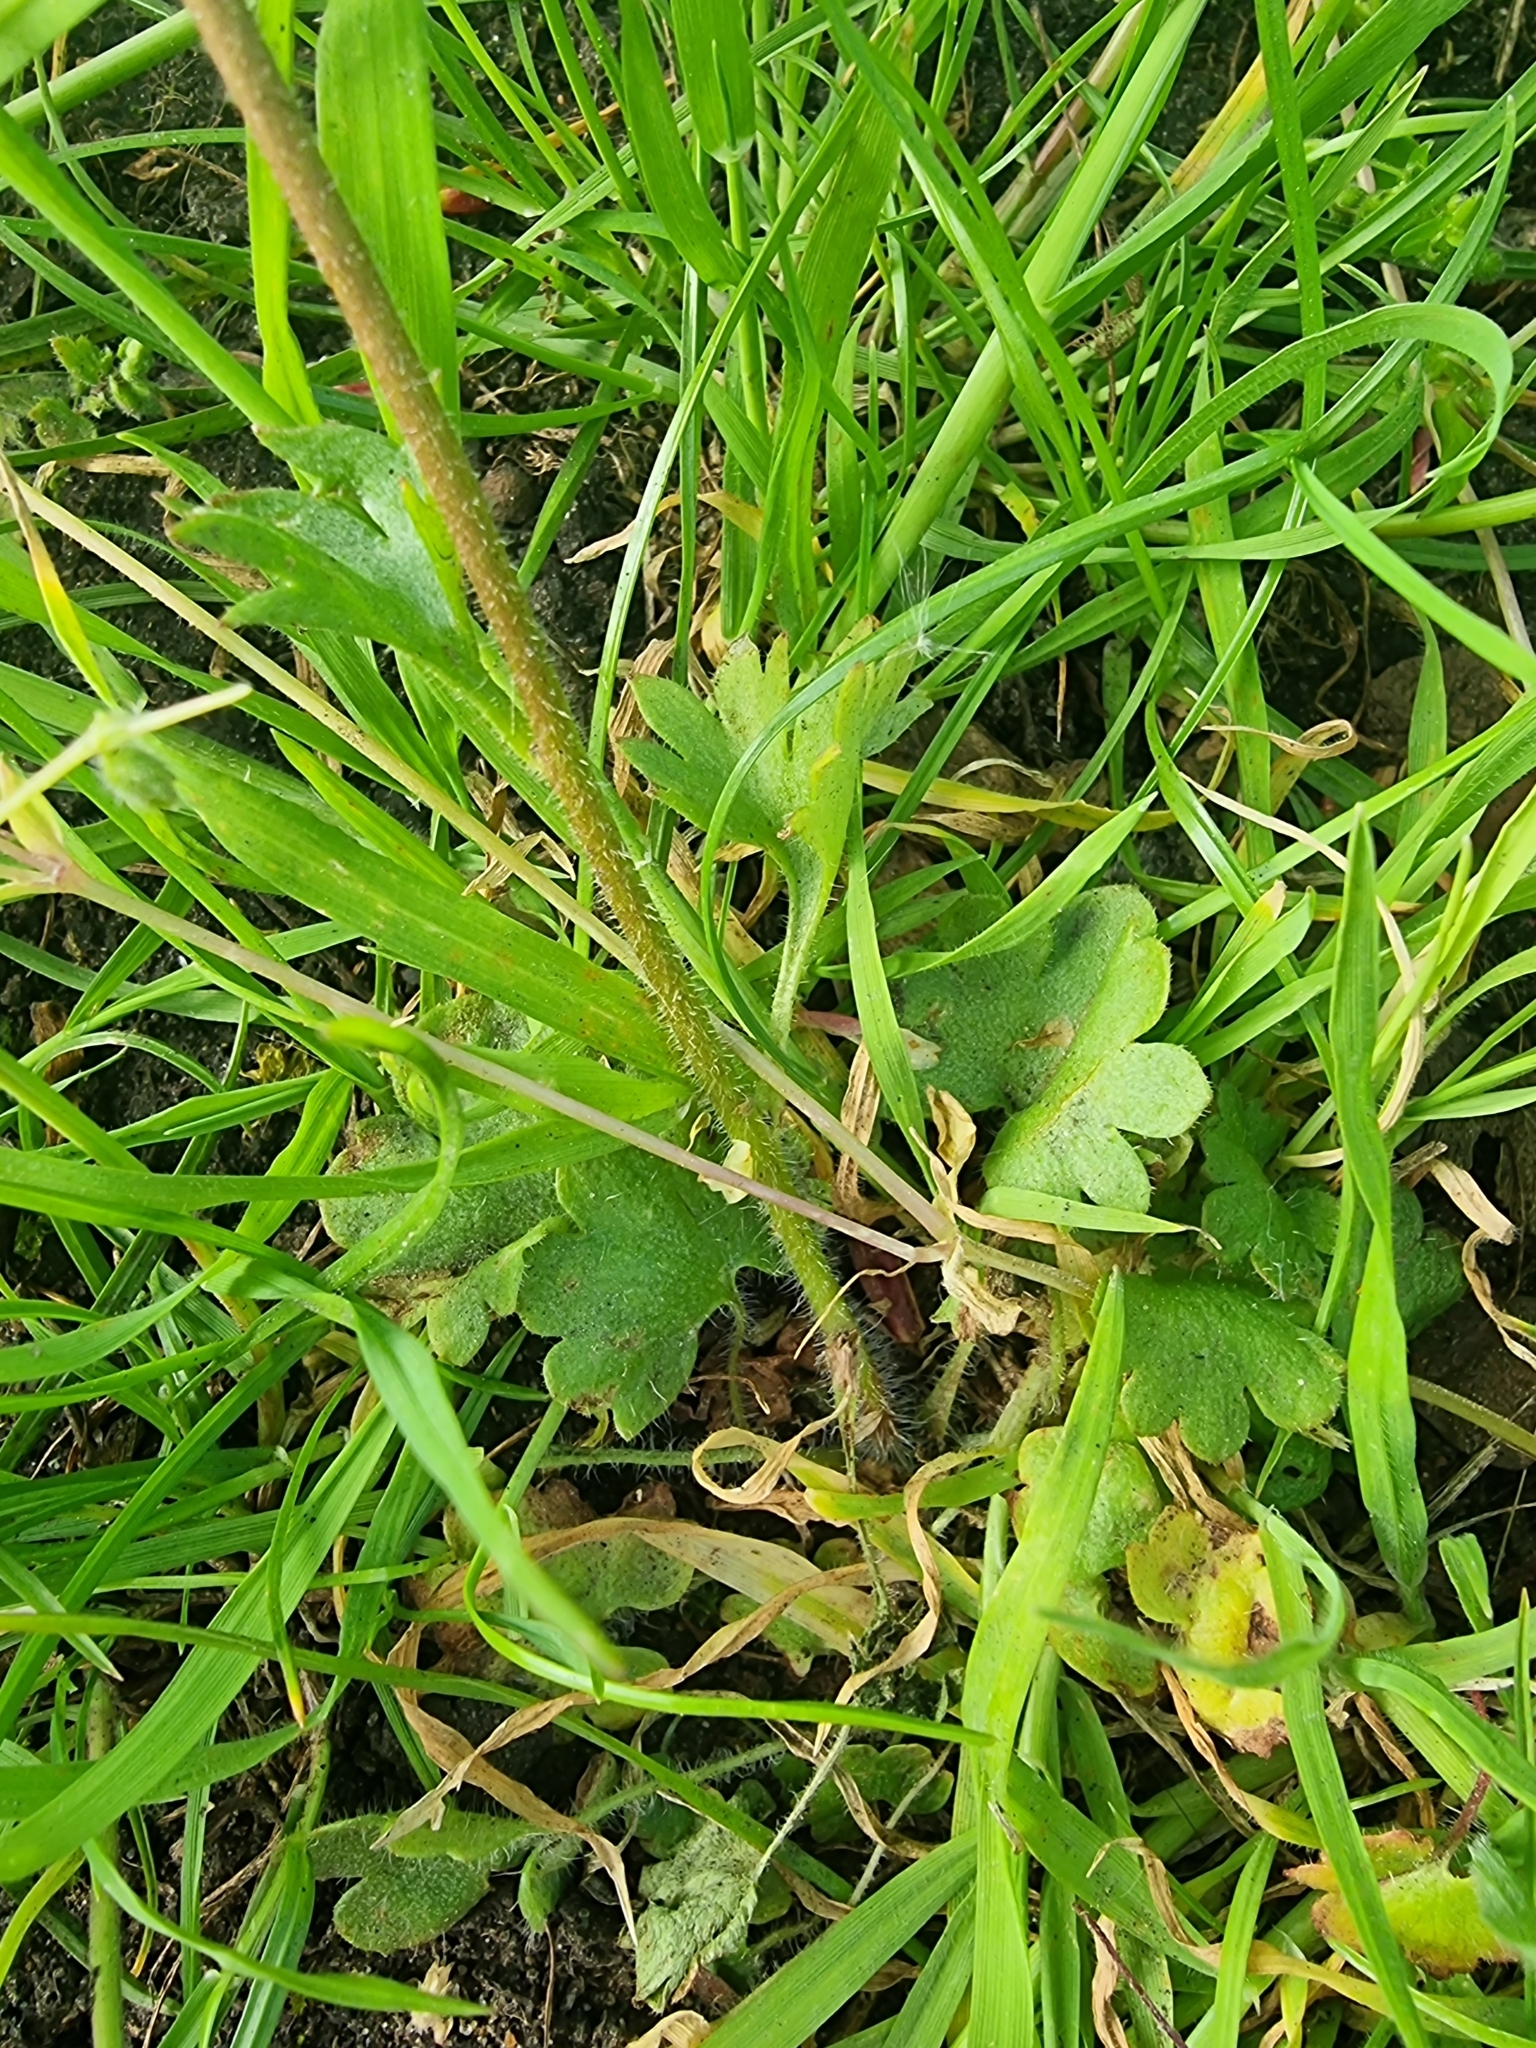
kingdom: Plantae
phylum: Tracheophyta
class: Magnoliopsida
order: Saxifragales
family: Saxifragaceae
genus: Saxifraga
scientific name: Saxifraga granulata
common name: Meadow saxifrage
